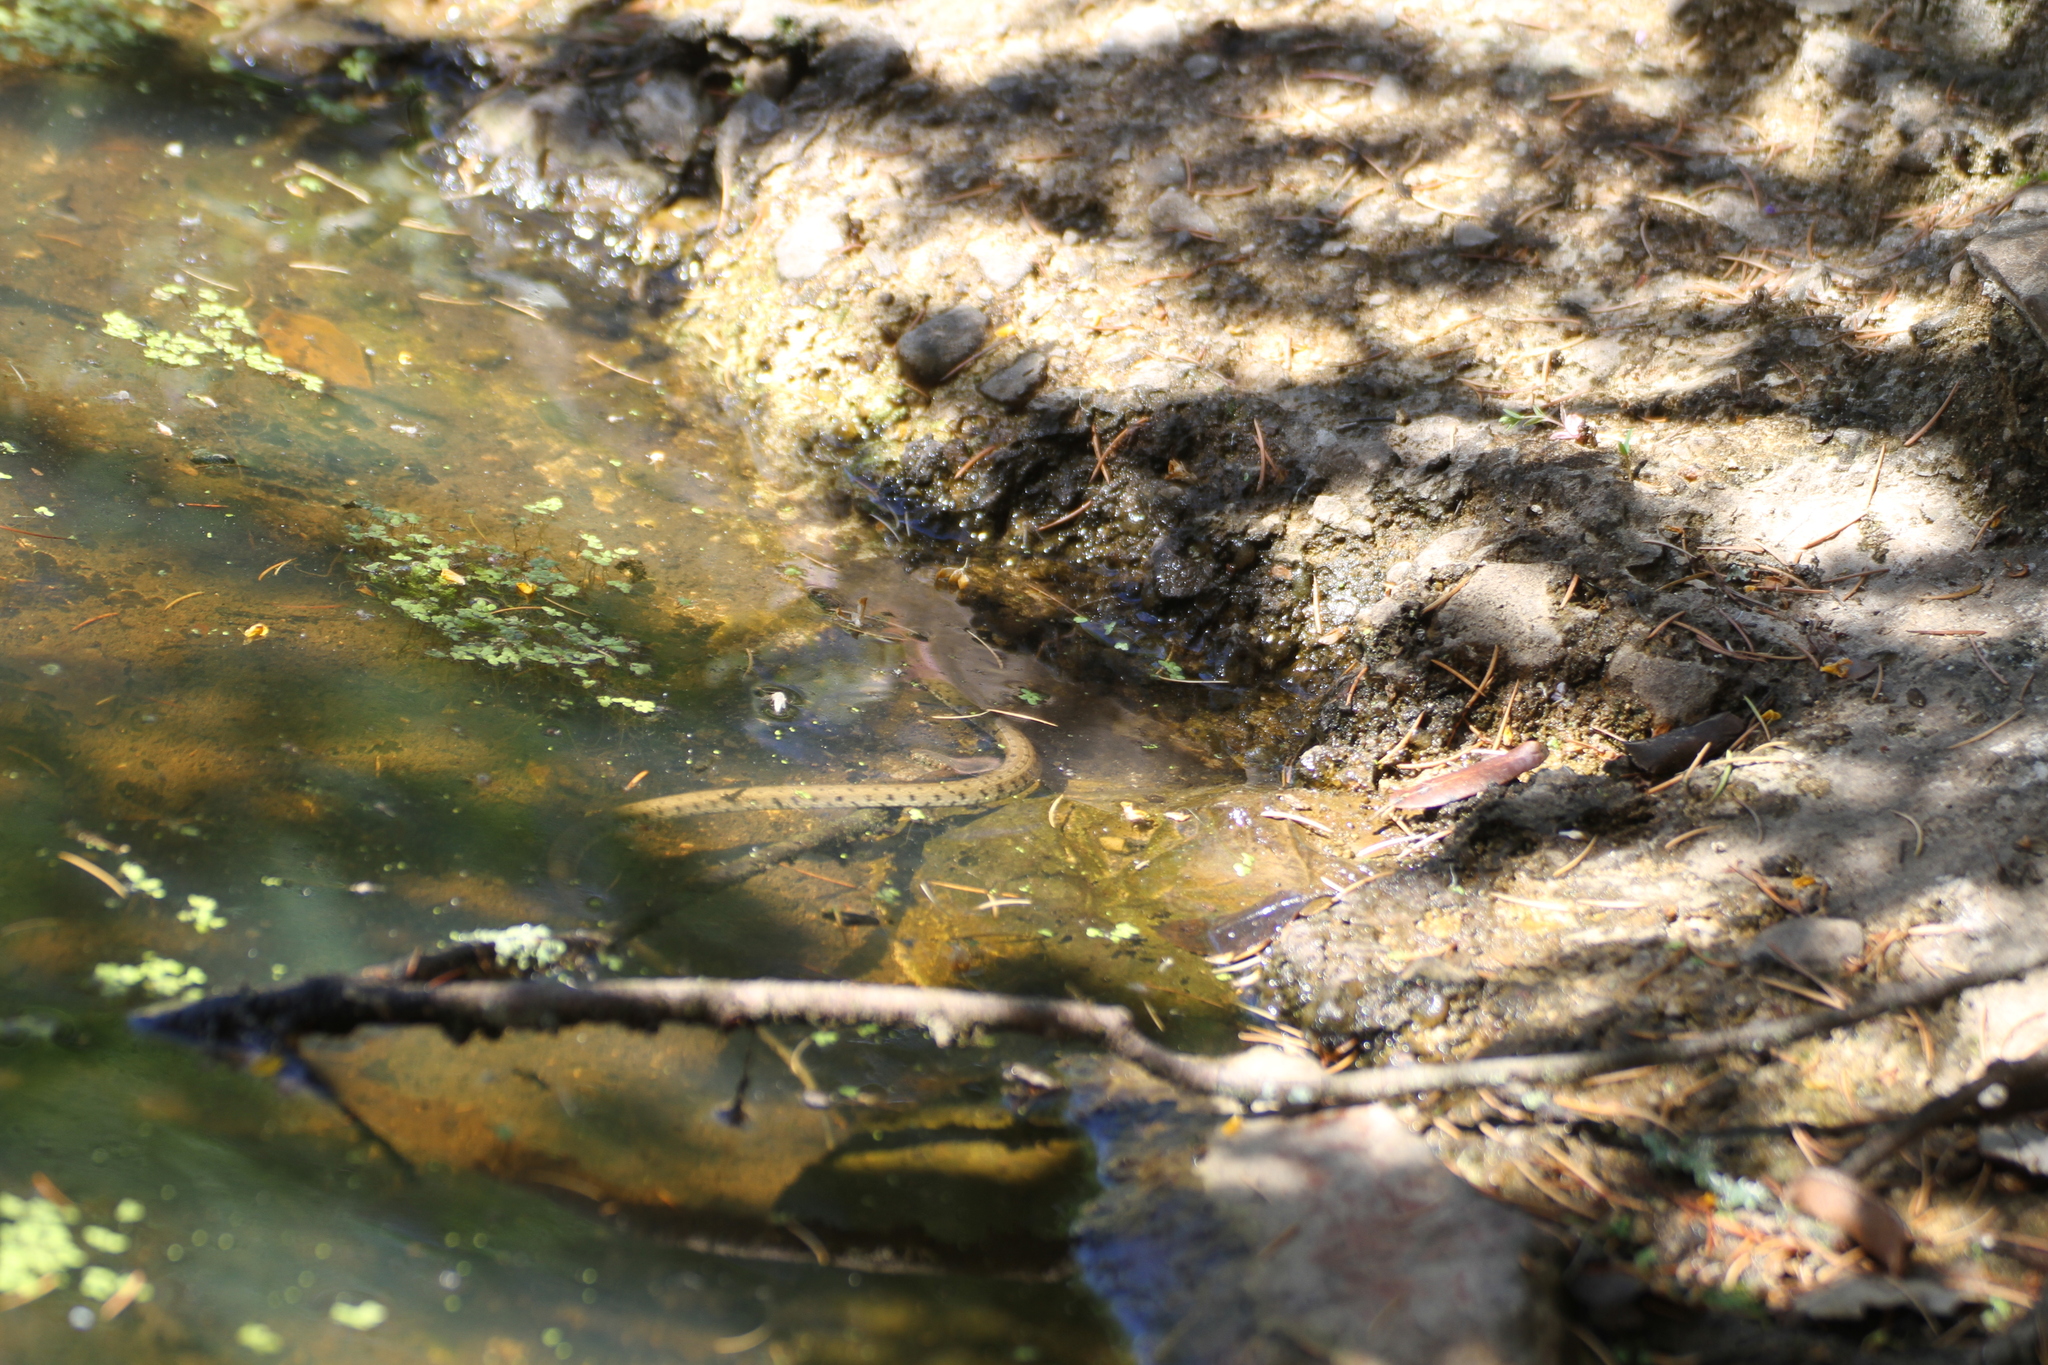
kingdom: Animalia
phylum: Chordata
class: Squamata
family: Colubridae
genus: Natrix
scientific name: Natrix helvetica
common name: Banded grass snake
